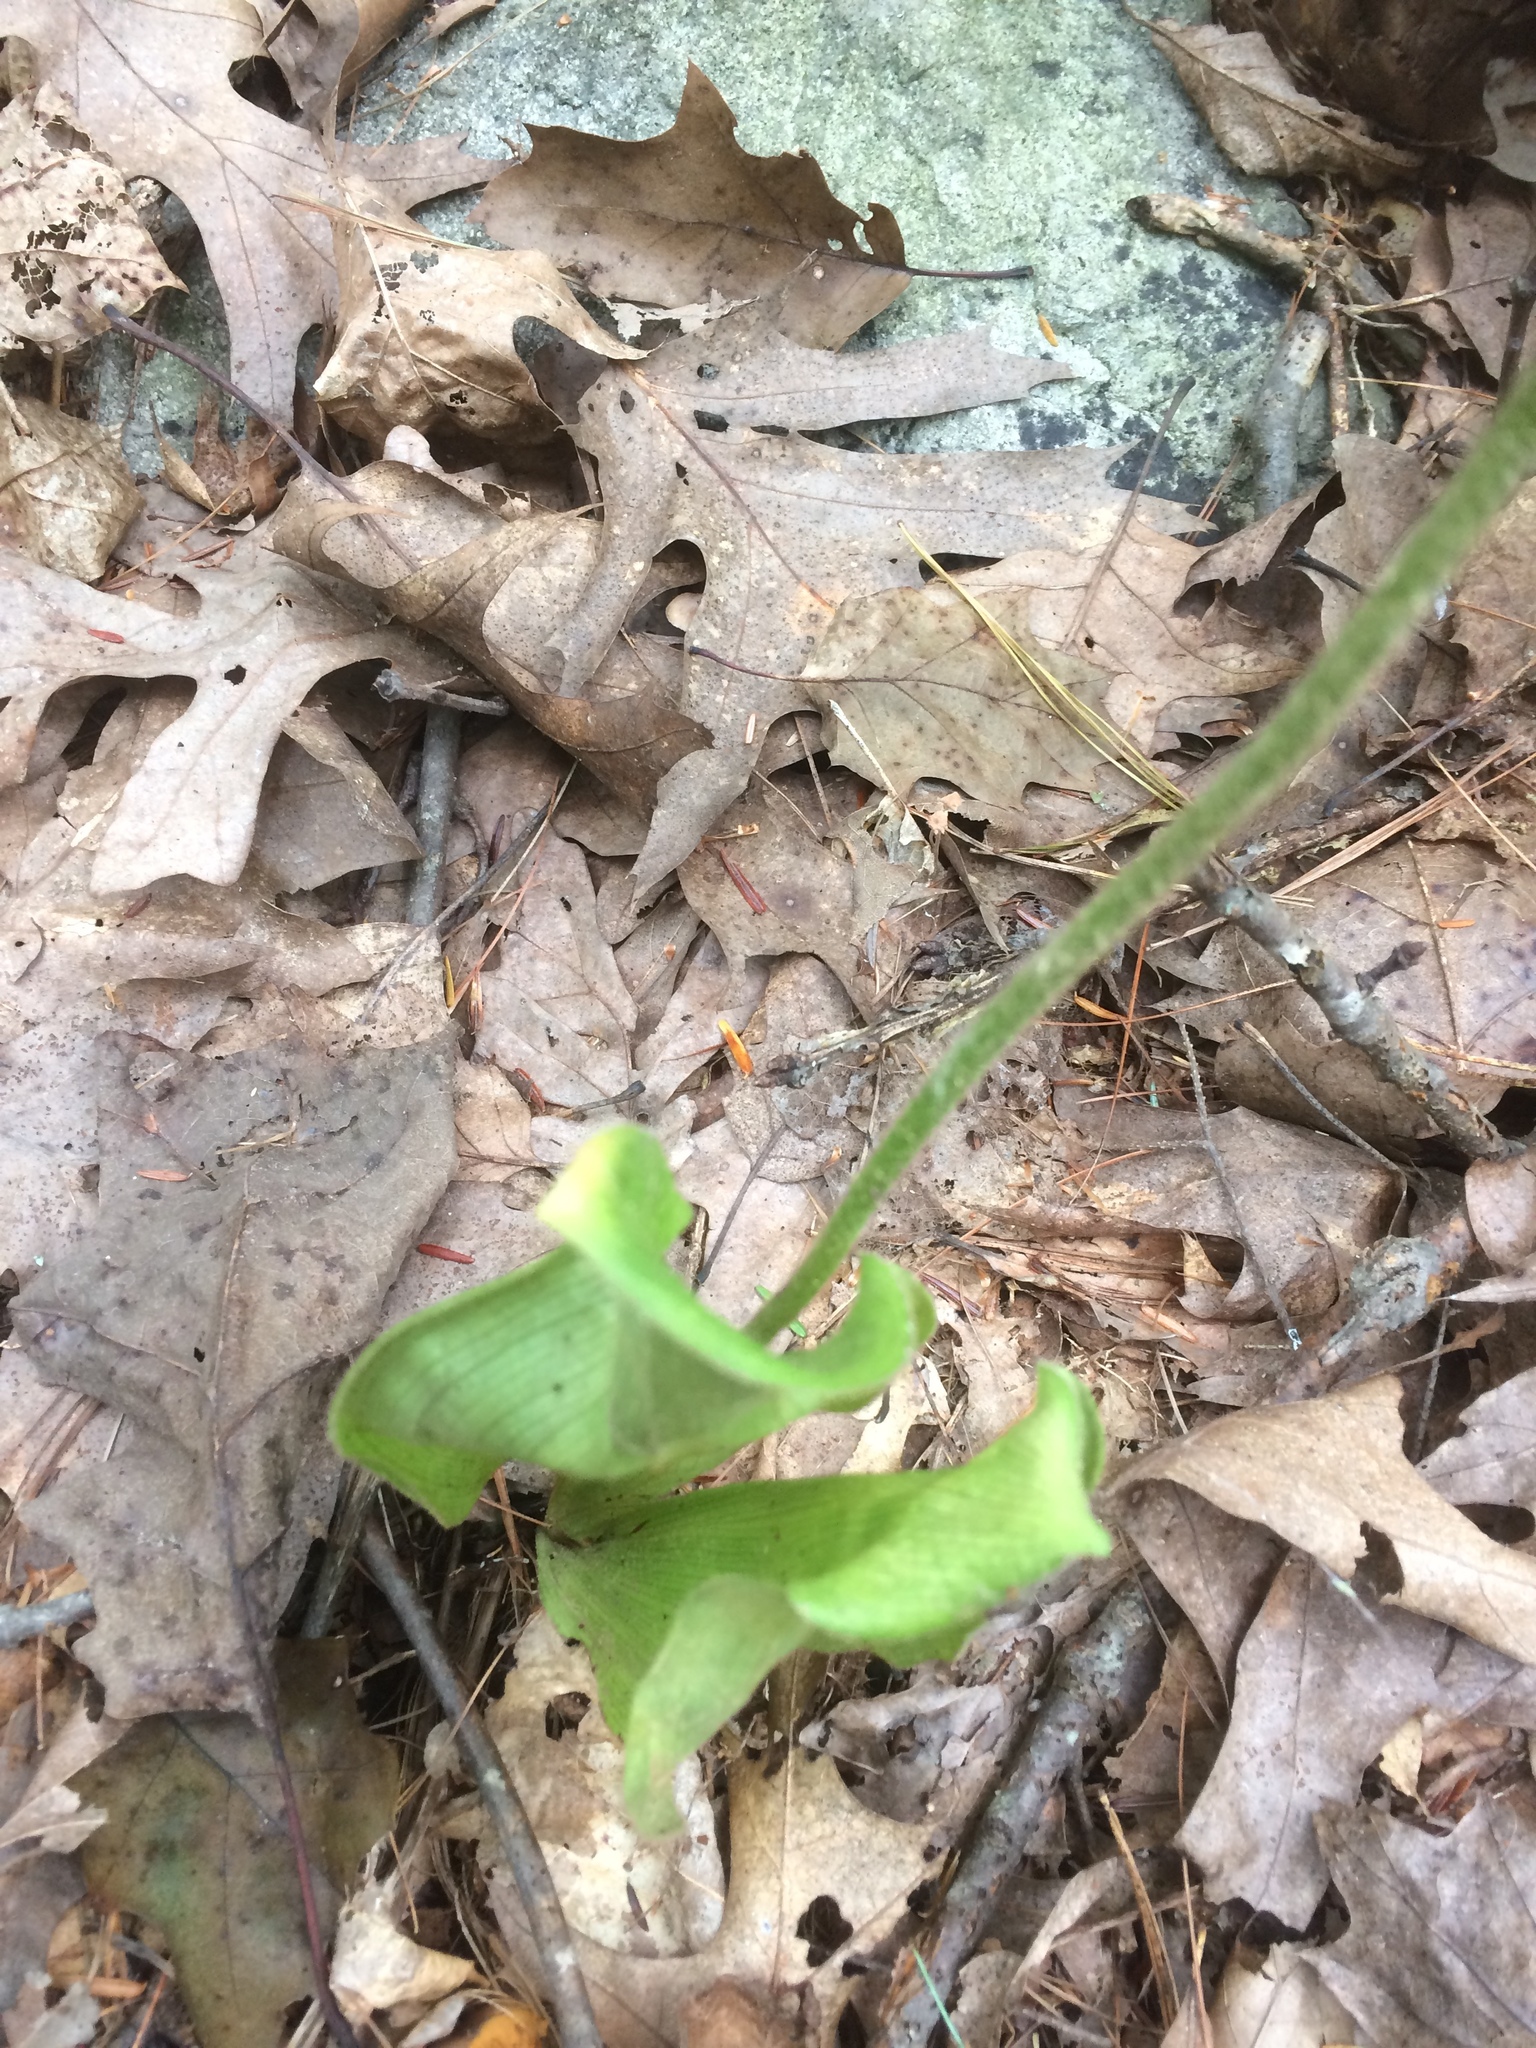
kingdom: Plantae
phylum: Tracheophyta
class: Liliopsida
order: Asparagales
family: Orchidaceae
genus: Cypripedium
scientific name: Cypripedium acaule
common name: Pink lady's-slipper
